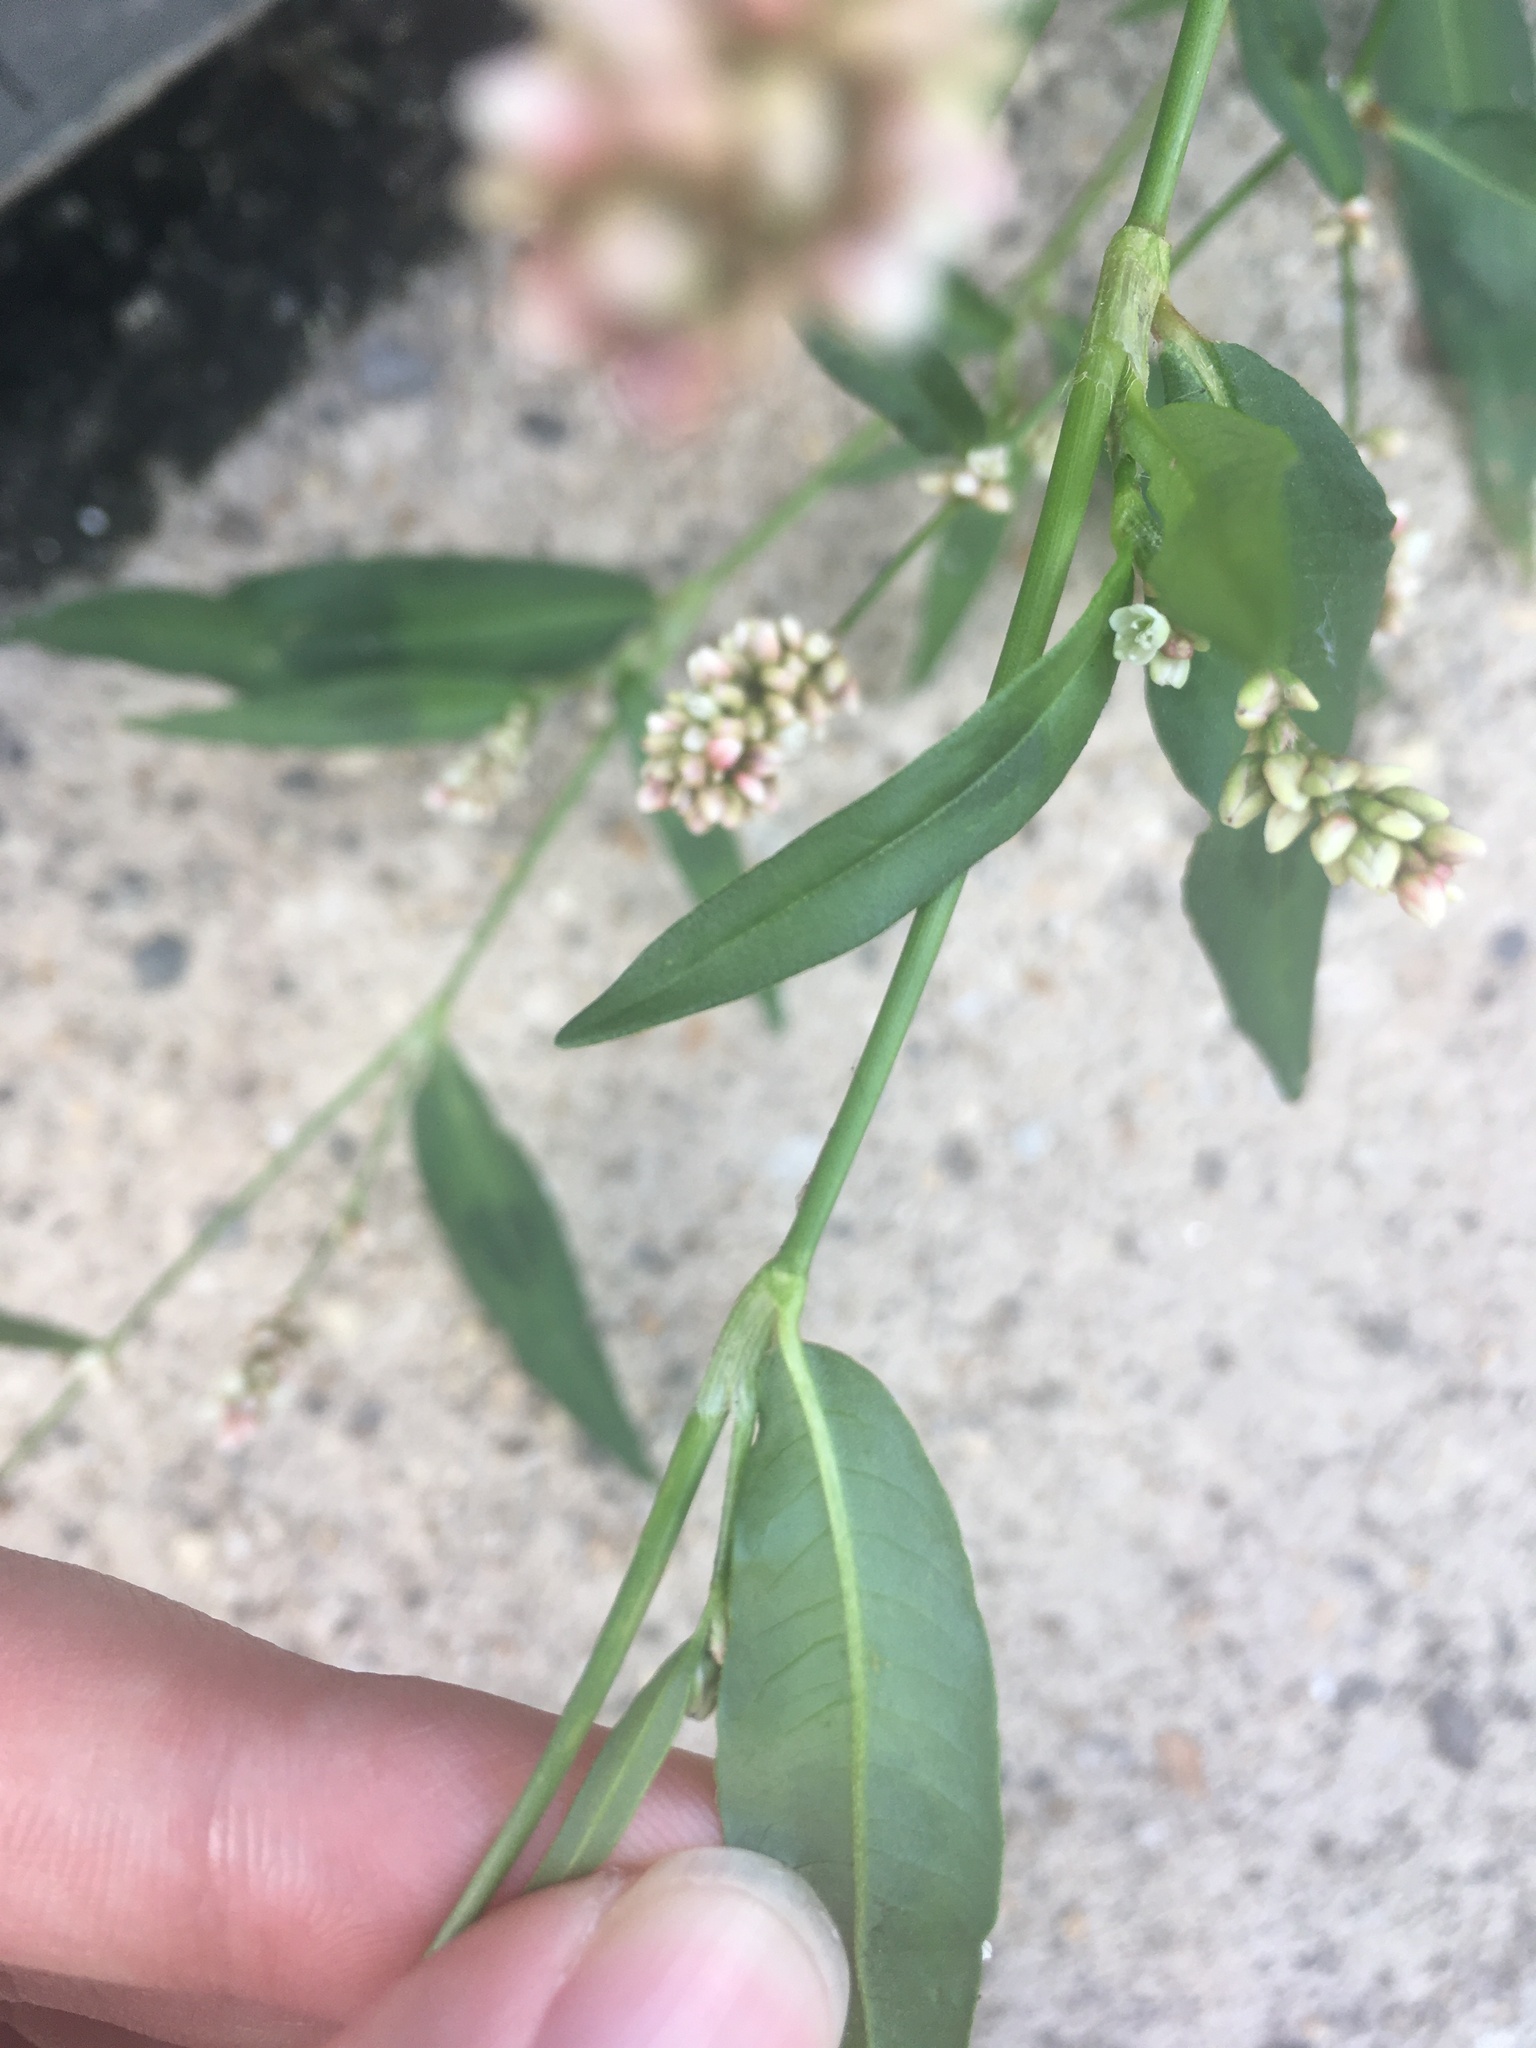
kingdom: Plantae
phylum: Tracheophyta
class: Magnoliopsida
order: Caryophyllales
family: Polygonaceae
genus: Persicaria
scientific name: Persicaria maculosa
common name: Redshank
